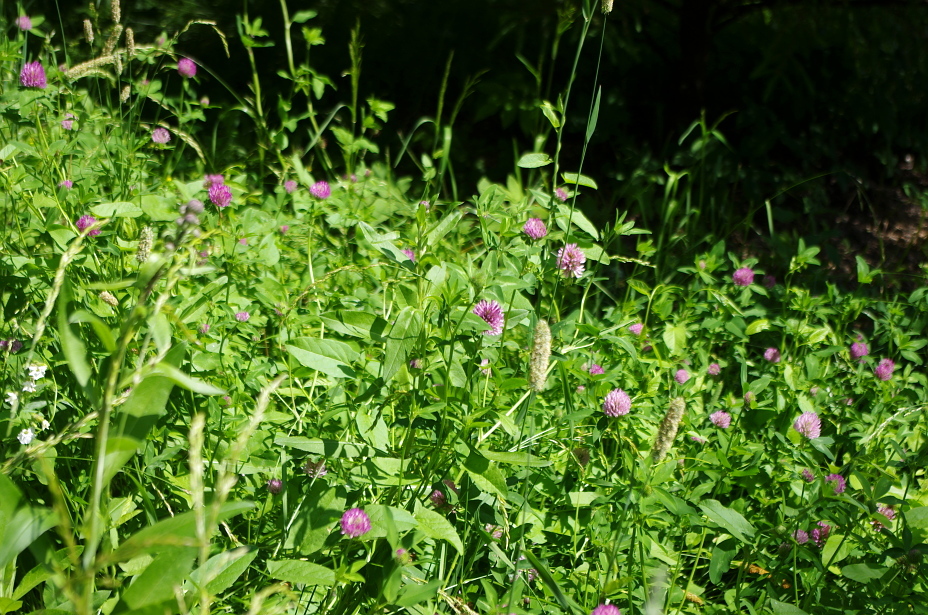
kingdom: Plantae
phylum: Tracheophyta
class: Magnoliopsida
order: Fabales
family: Fabaceae
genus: Trifolium
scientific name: Trifolium pratense
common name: Red clover
